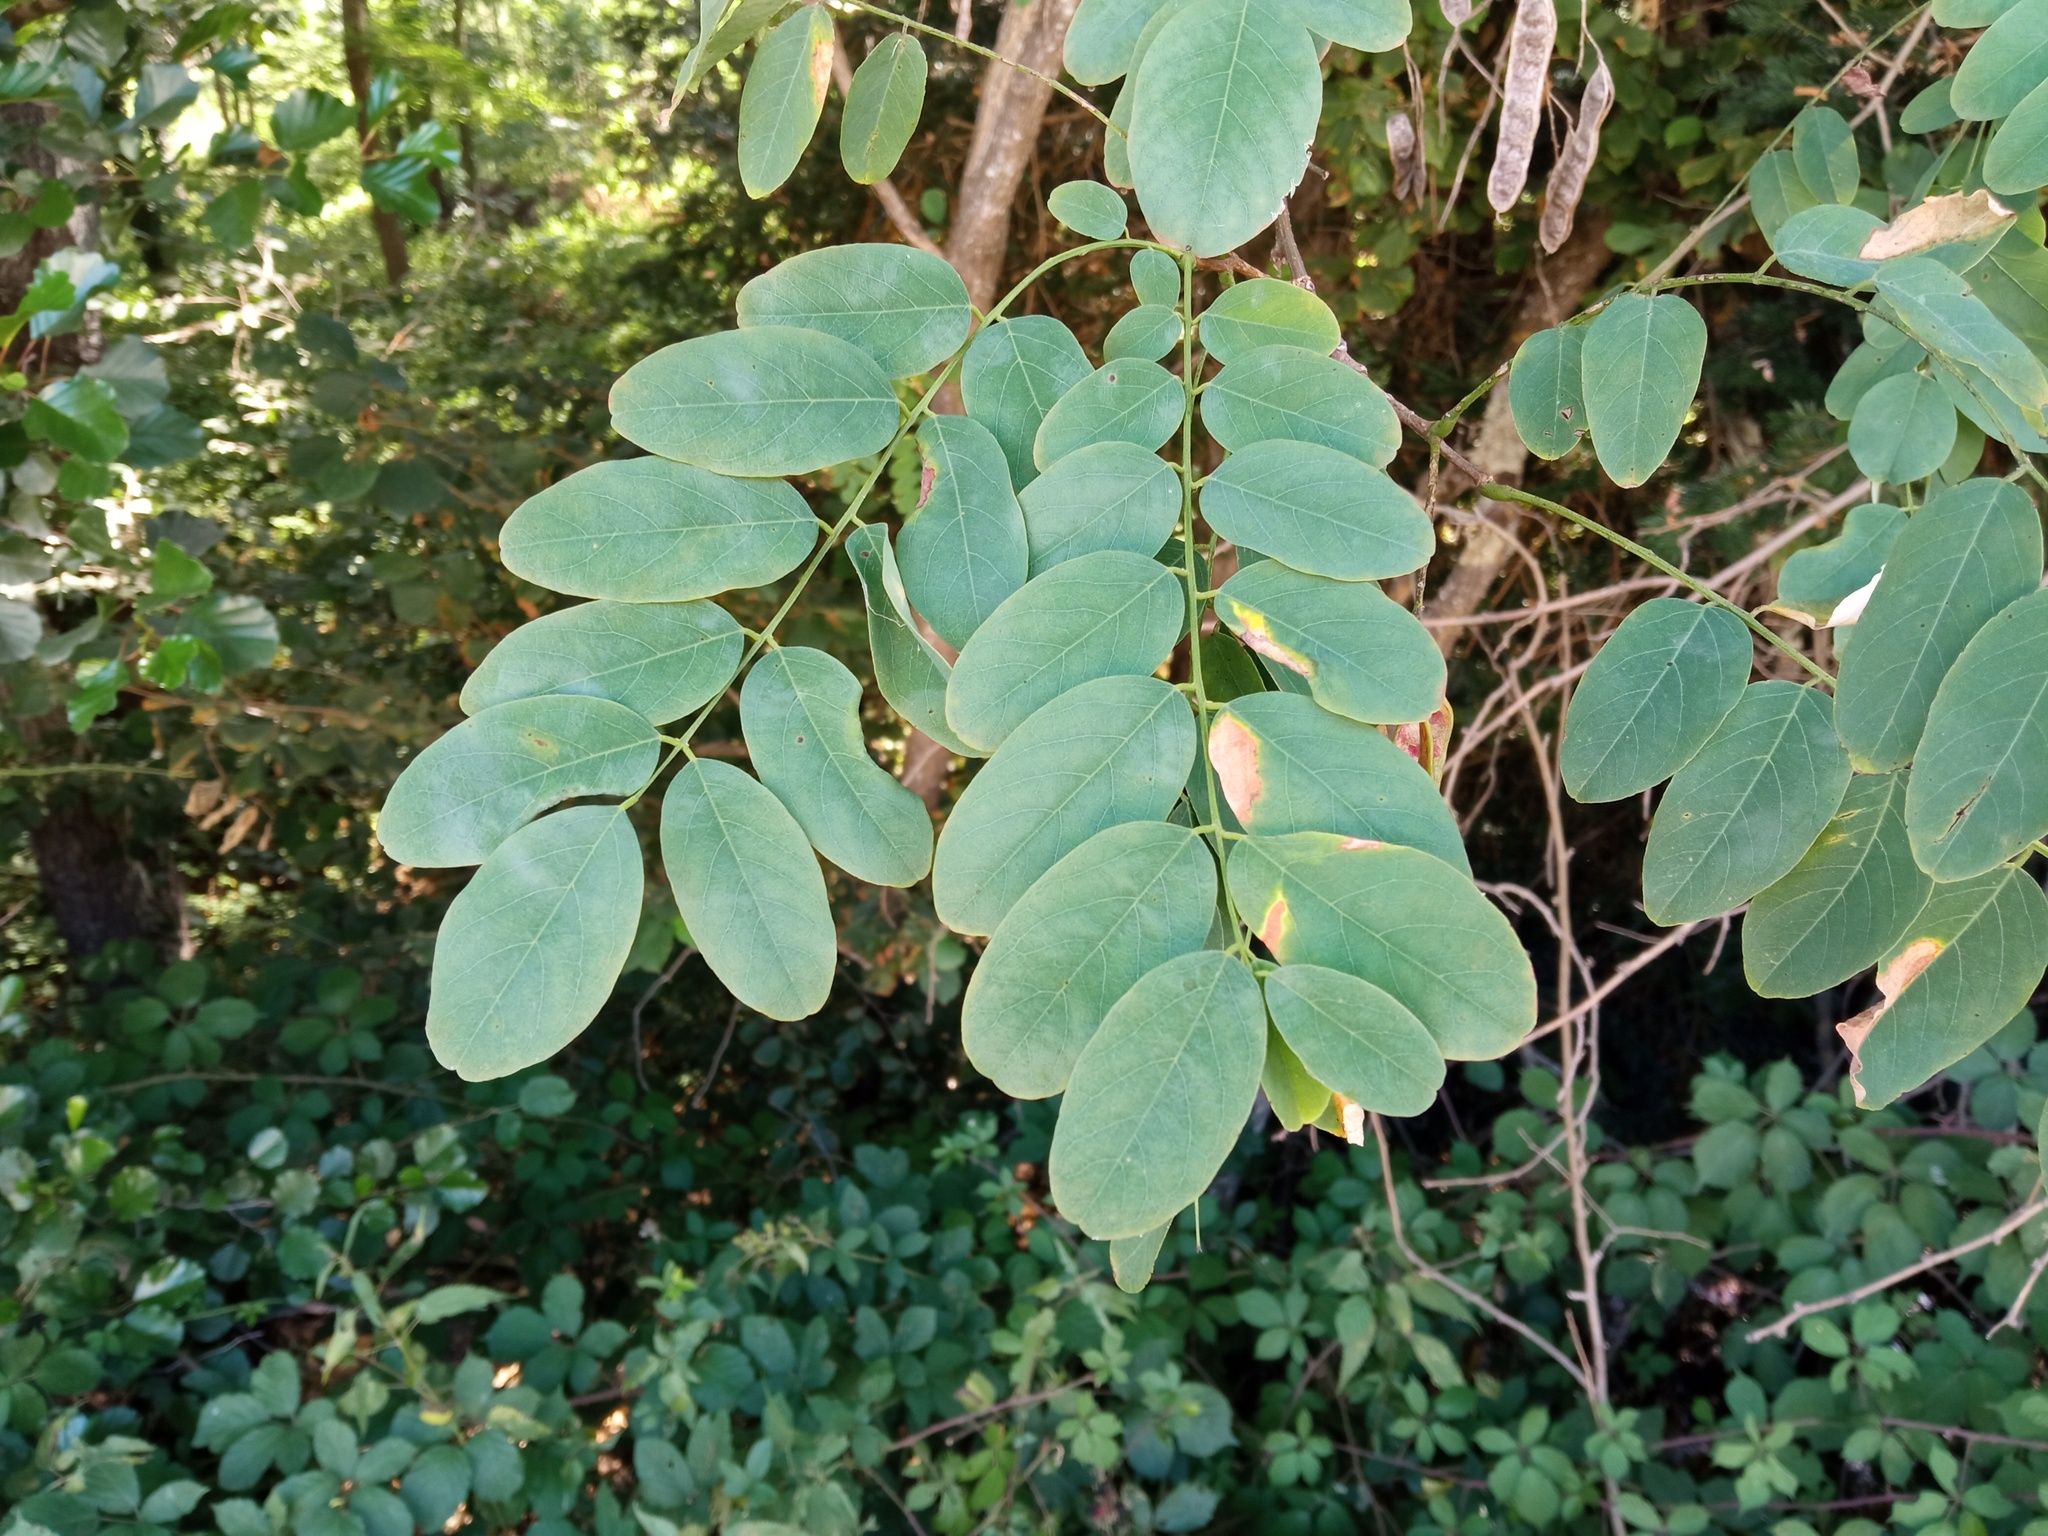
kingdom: Plantae
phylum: Tracheophyta
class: Magnoliopsida
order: Fabales
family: Fabaceae
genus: Robinia
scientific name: Robinia pseudoacacia
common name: Black locust
